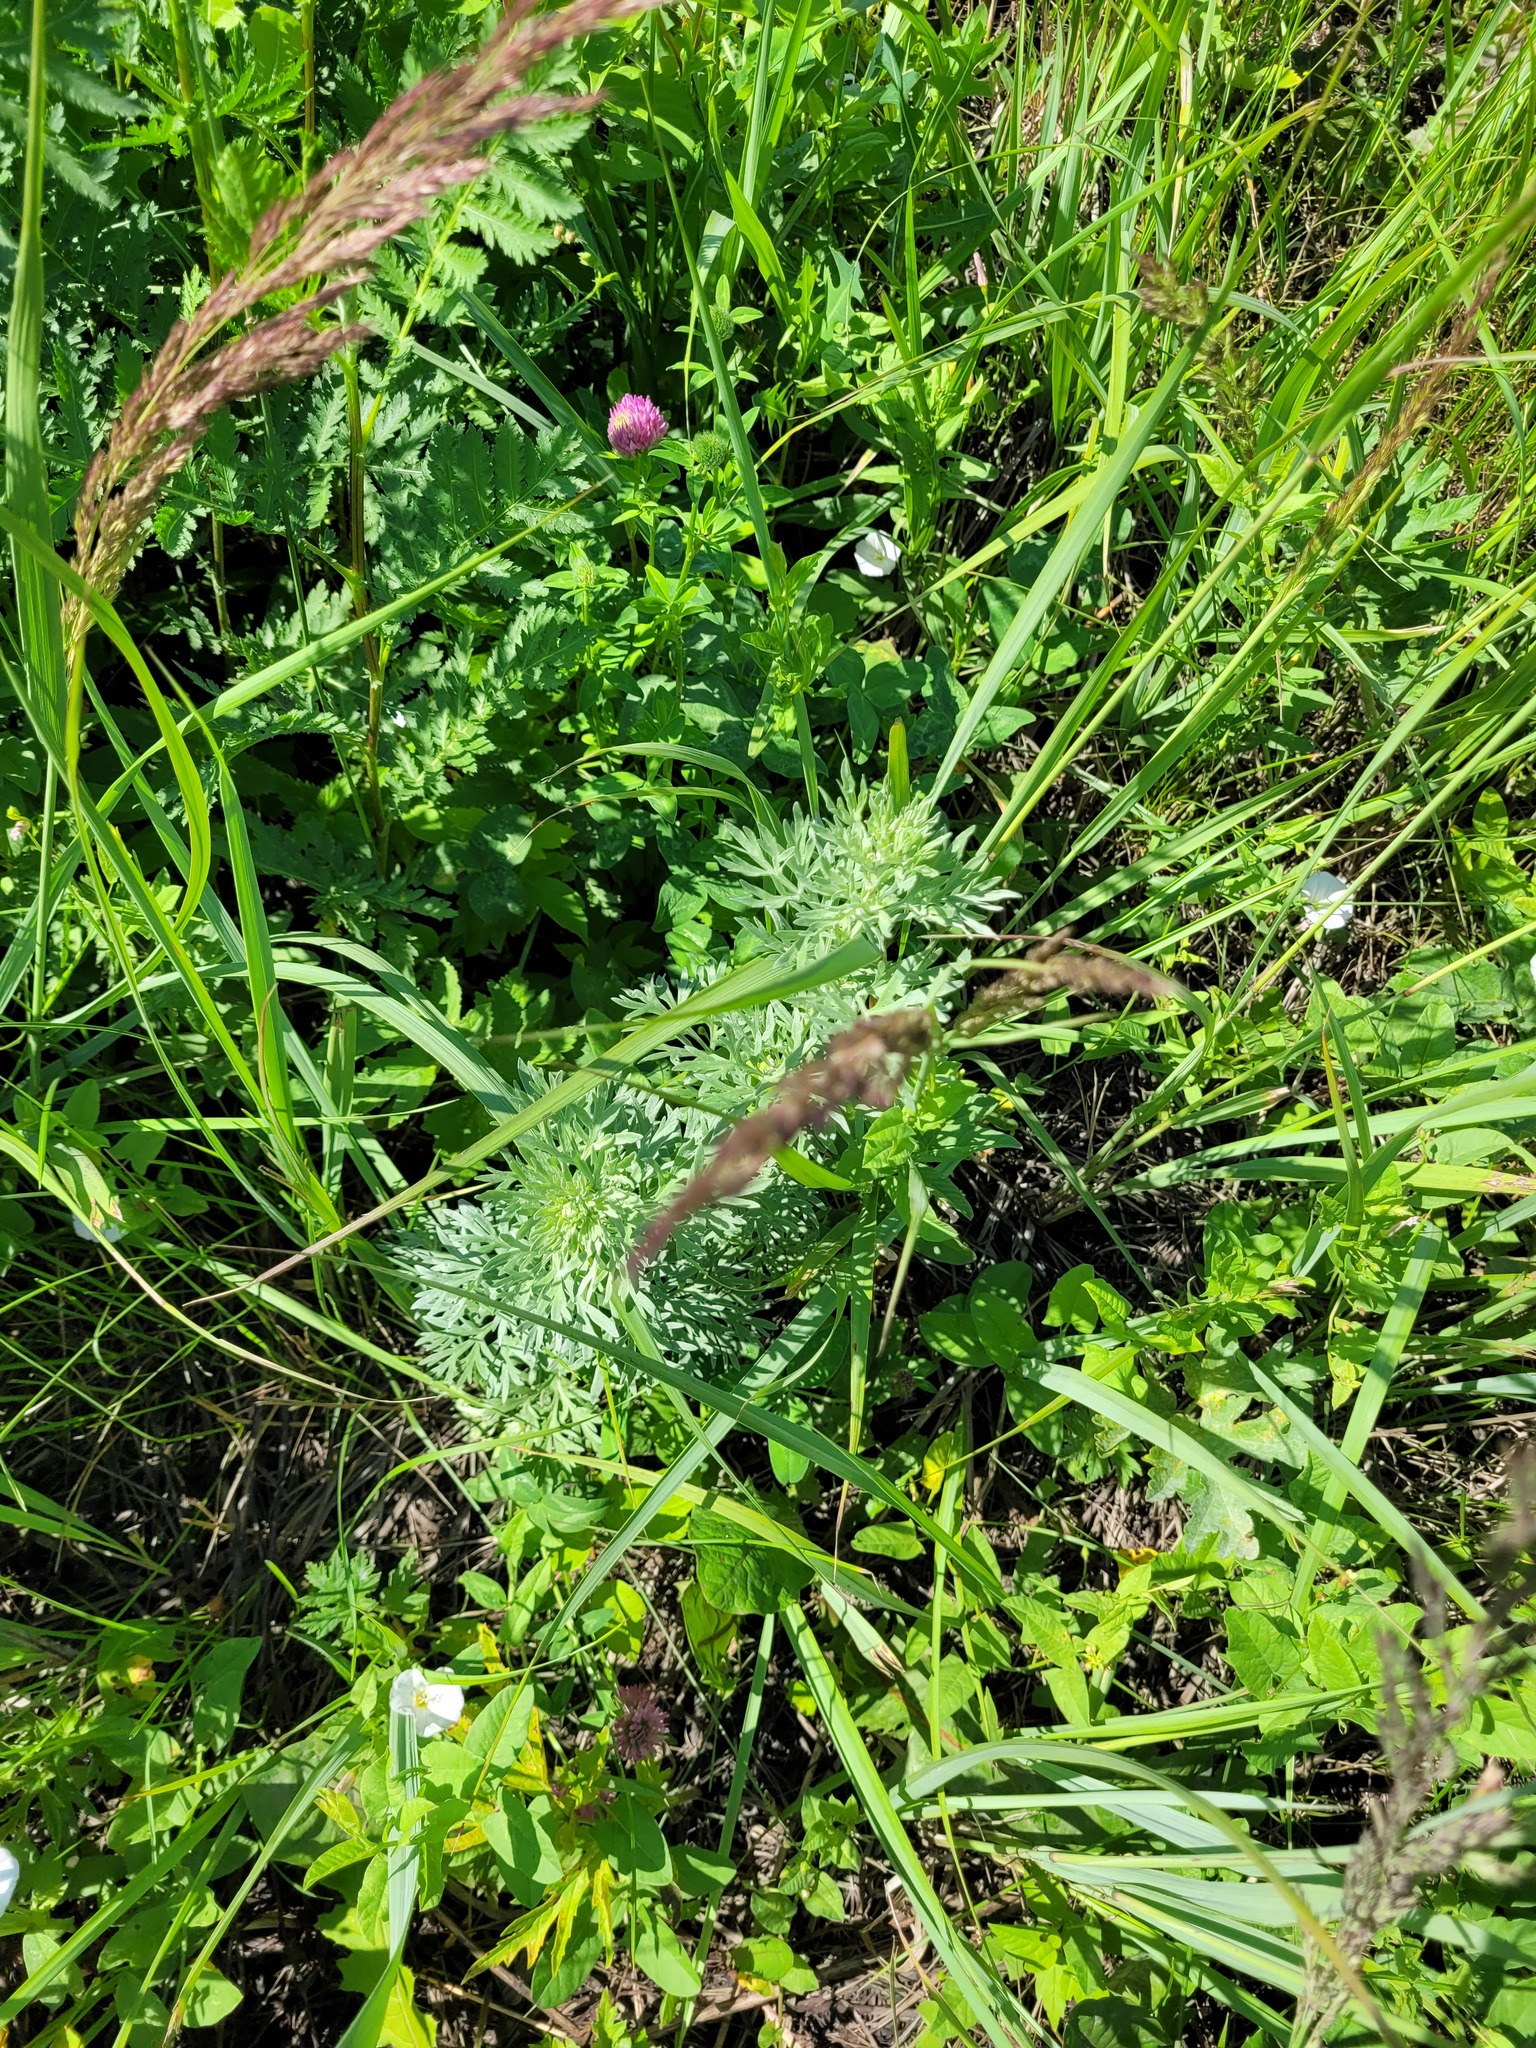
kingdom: Plantae
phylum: Tracheophyta
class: Magnoliopsida
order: Asterales
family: Asteraceae
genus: Artemisia
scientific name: Artemisia absinthium
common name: Wormwood
